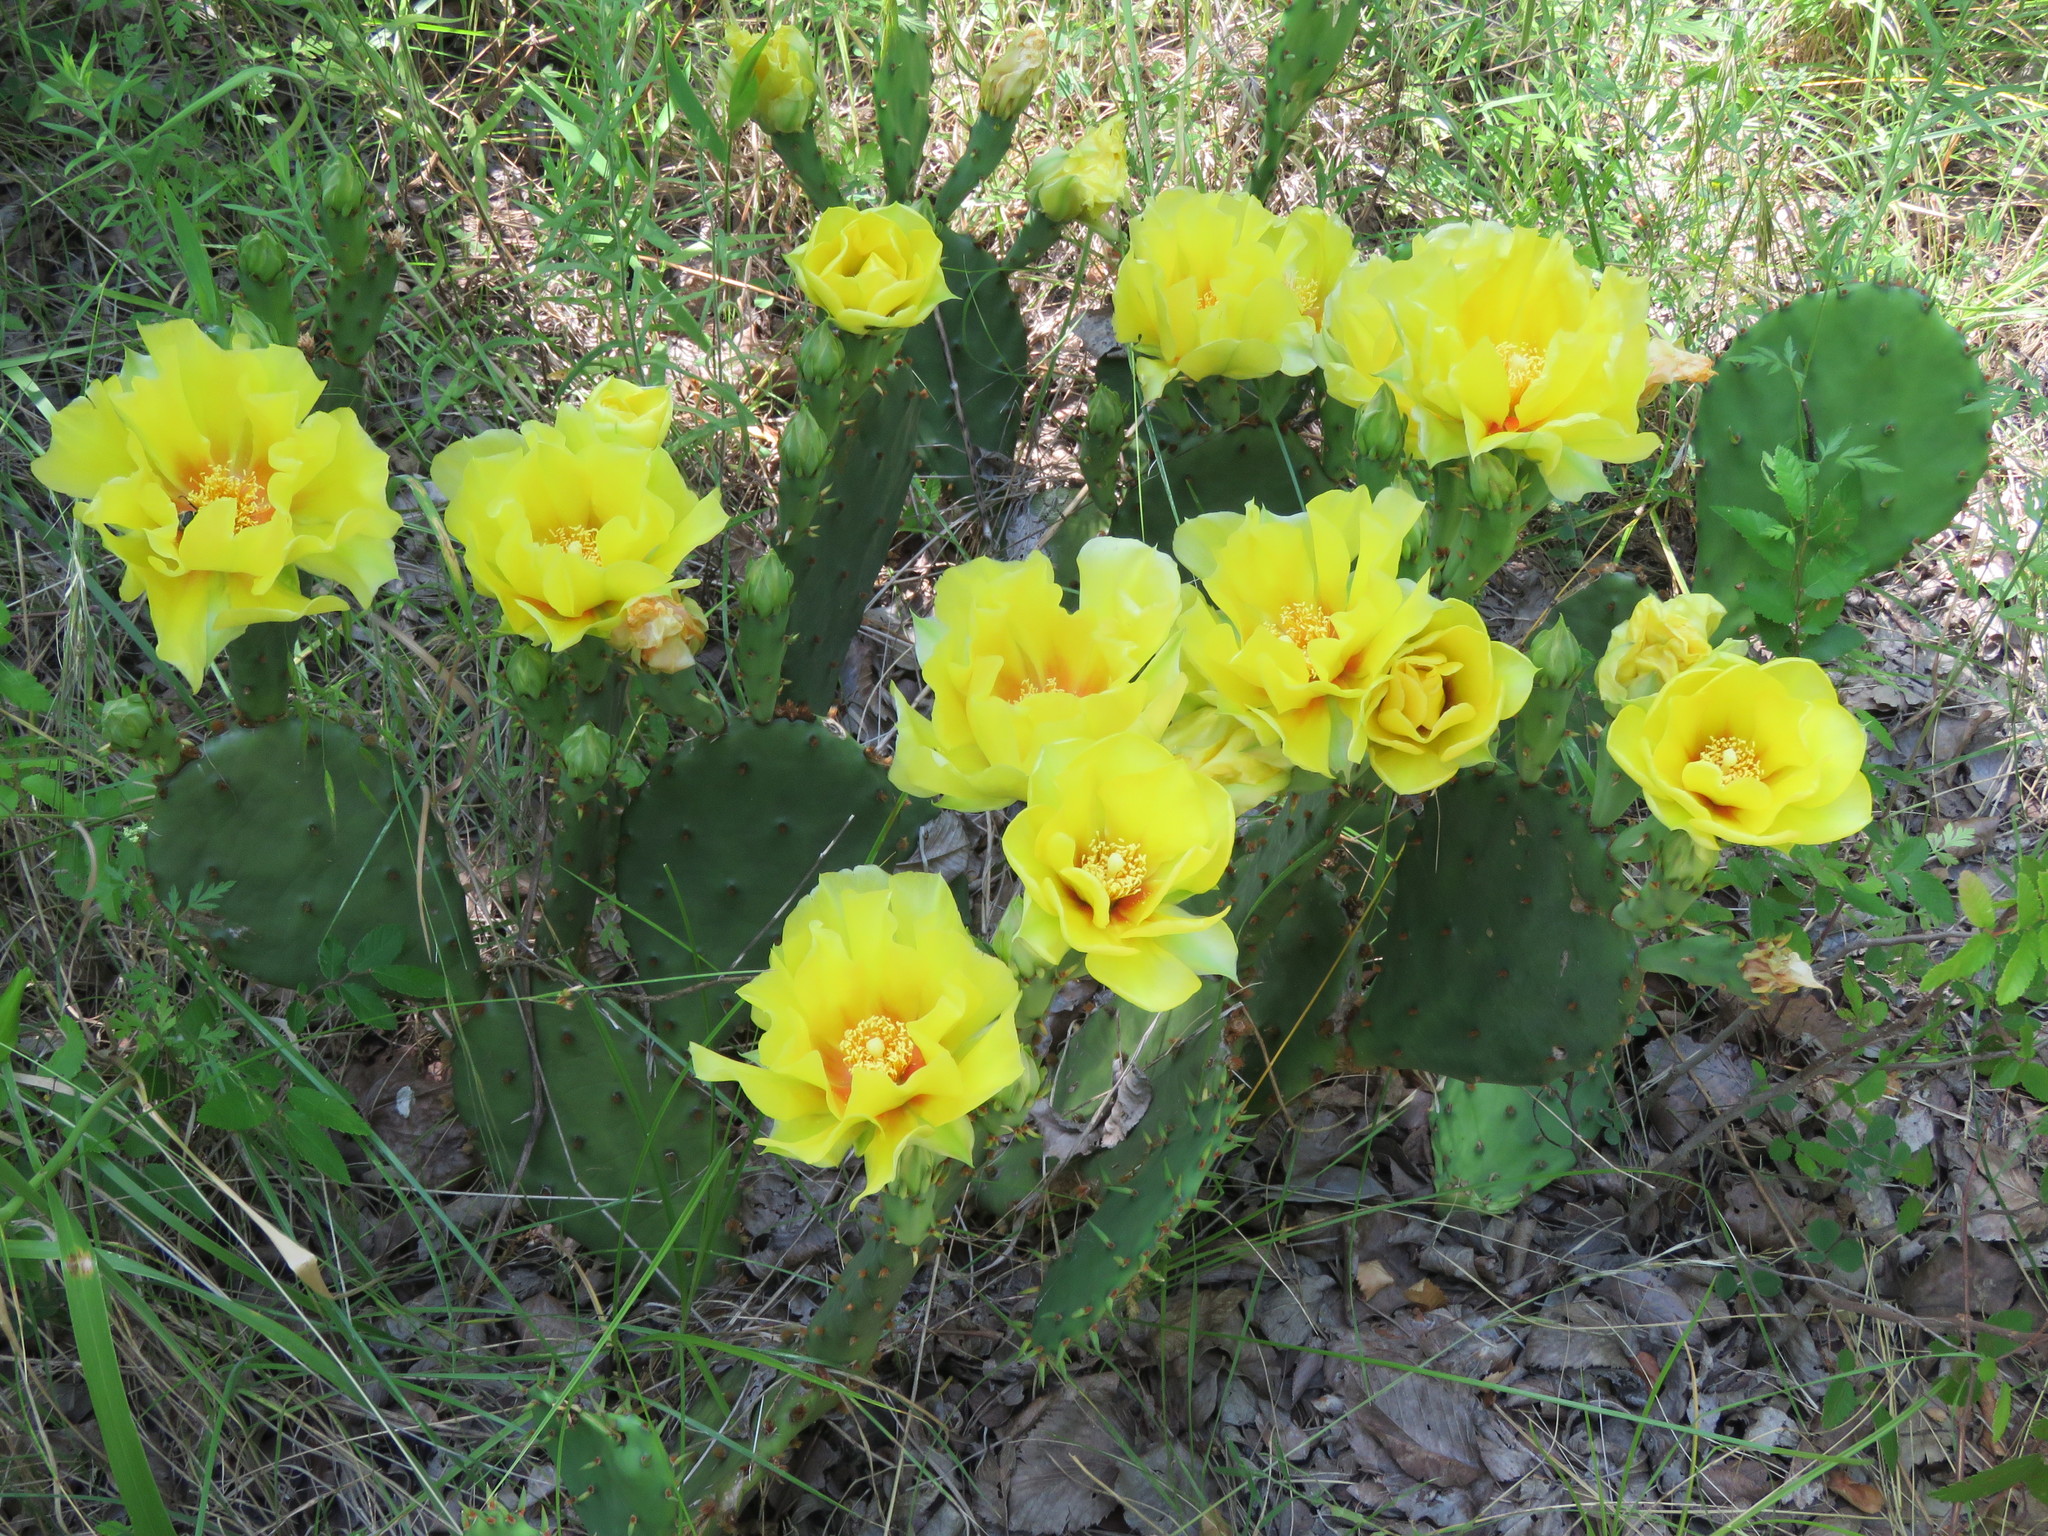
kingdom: Plantae
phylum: Tracheophyta
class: Magnoliopsida
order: Caryophyllales
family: Cactaceae
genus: Opuntia
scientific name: Opuntia macrorhiza
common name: Grassland pricklypear
